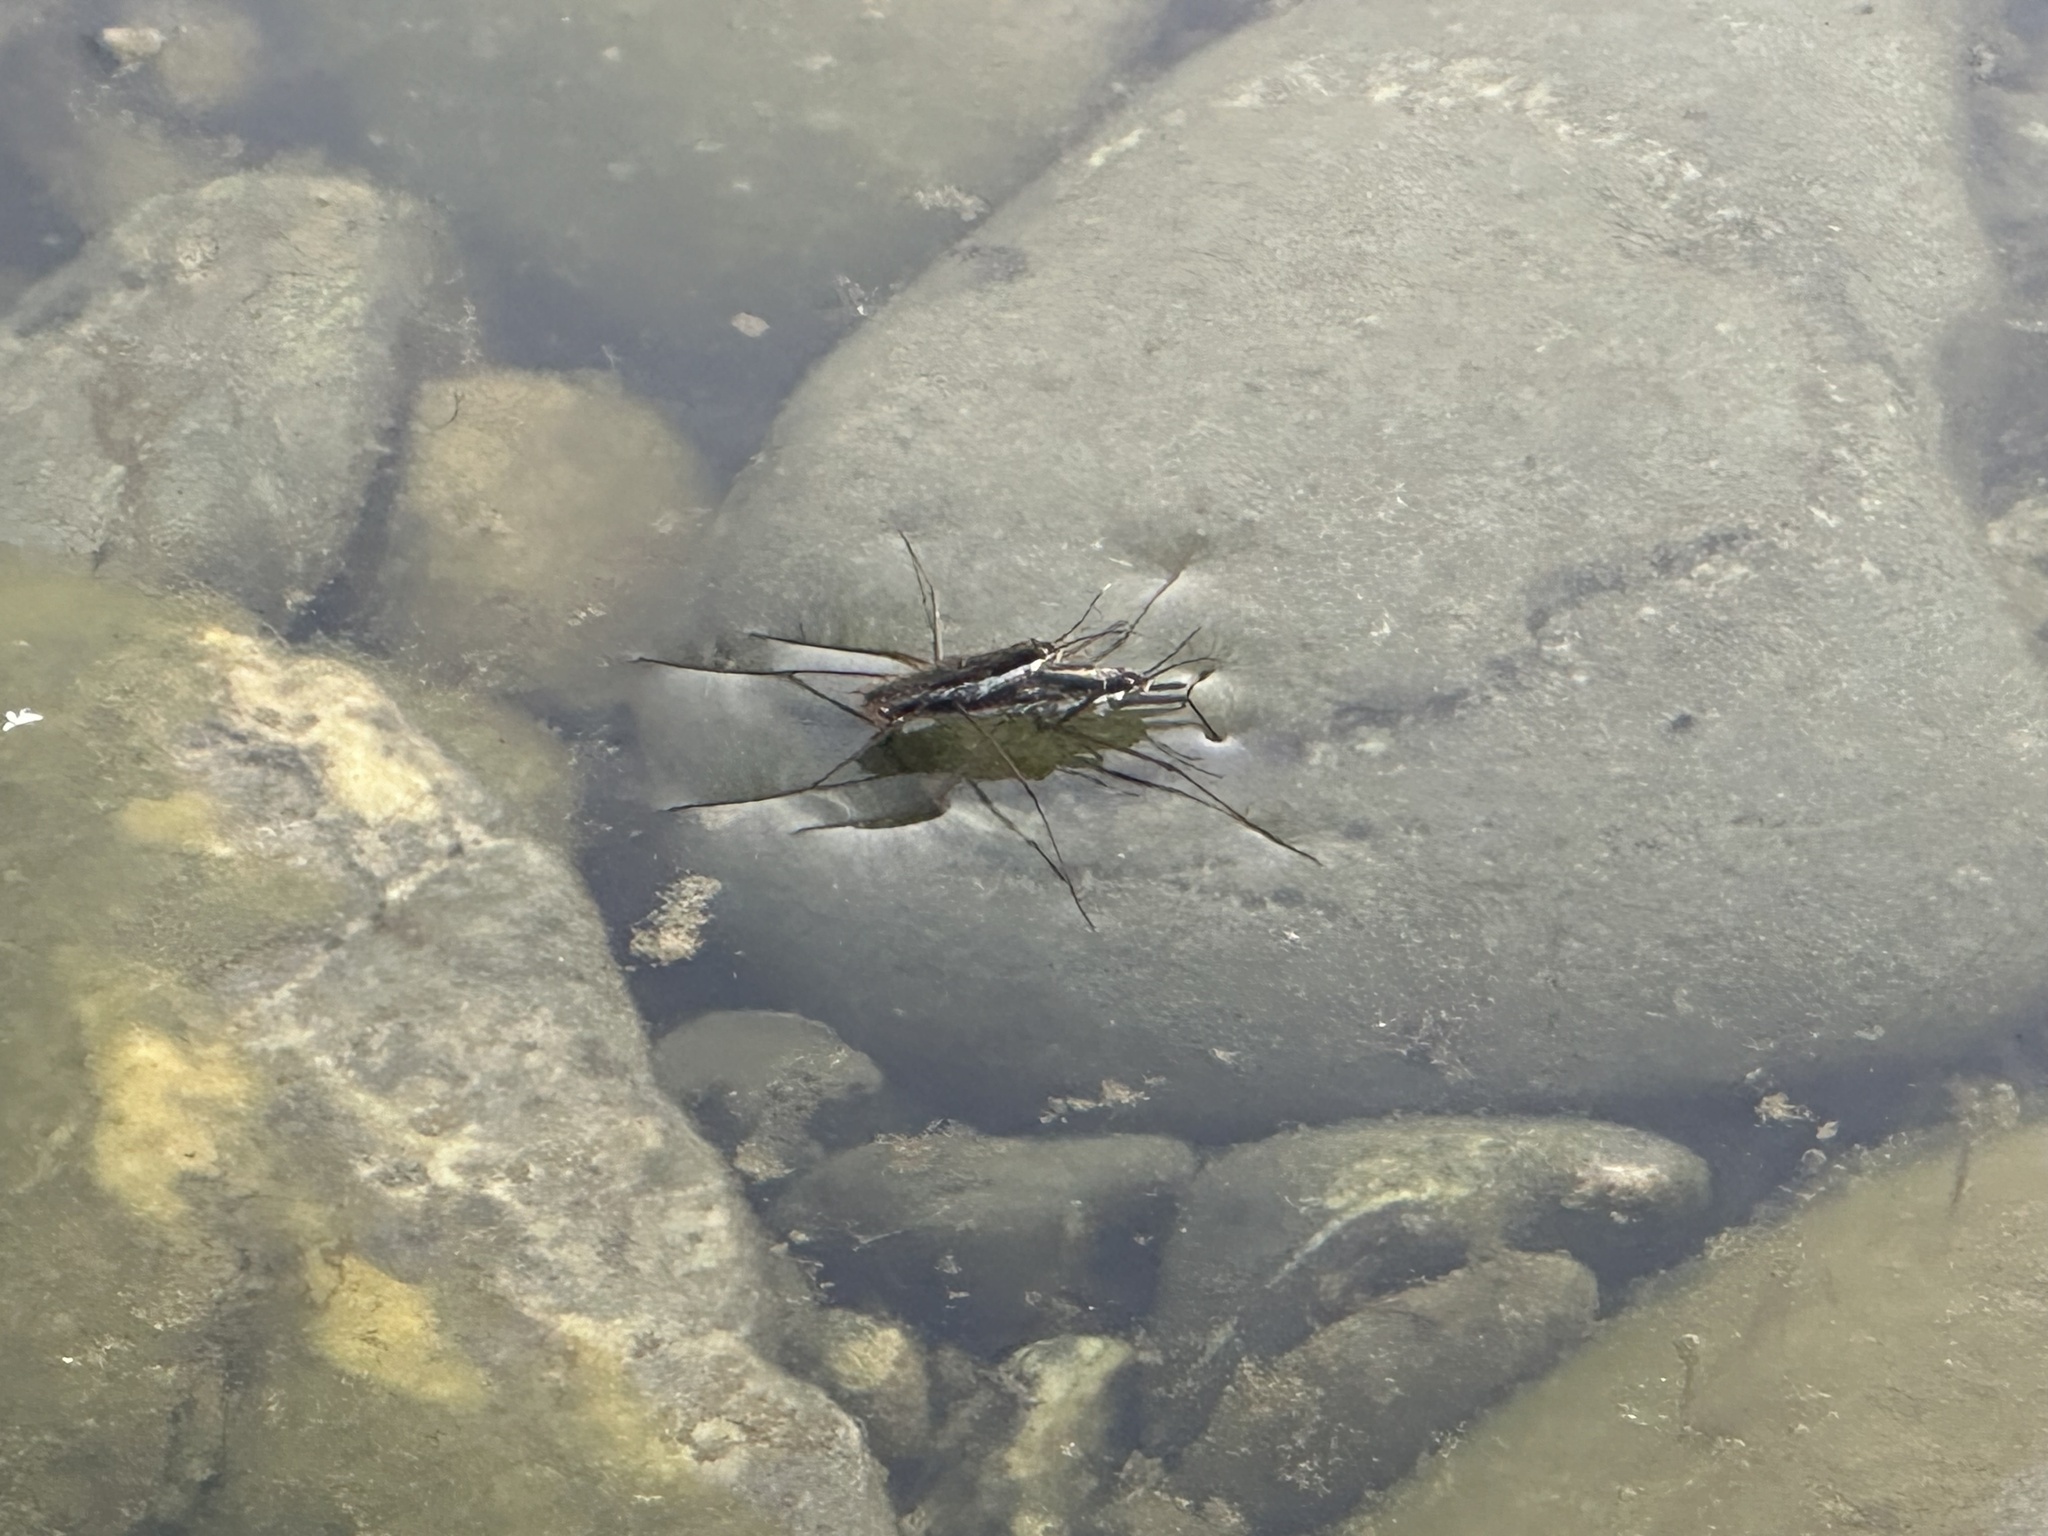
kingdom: Animalia
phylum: Arthropoda
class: Insecta
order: Hemiptera
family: Gerridae
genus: Aquarius
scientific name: Aquarius remigis
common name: Common water strider
